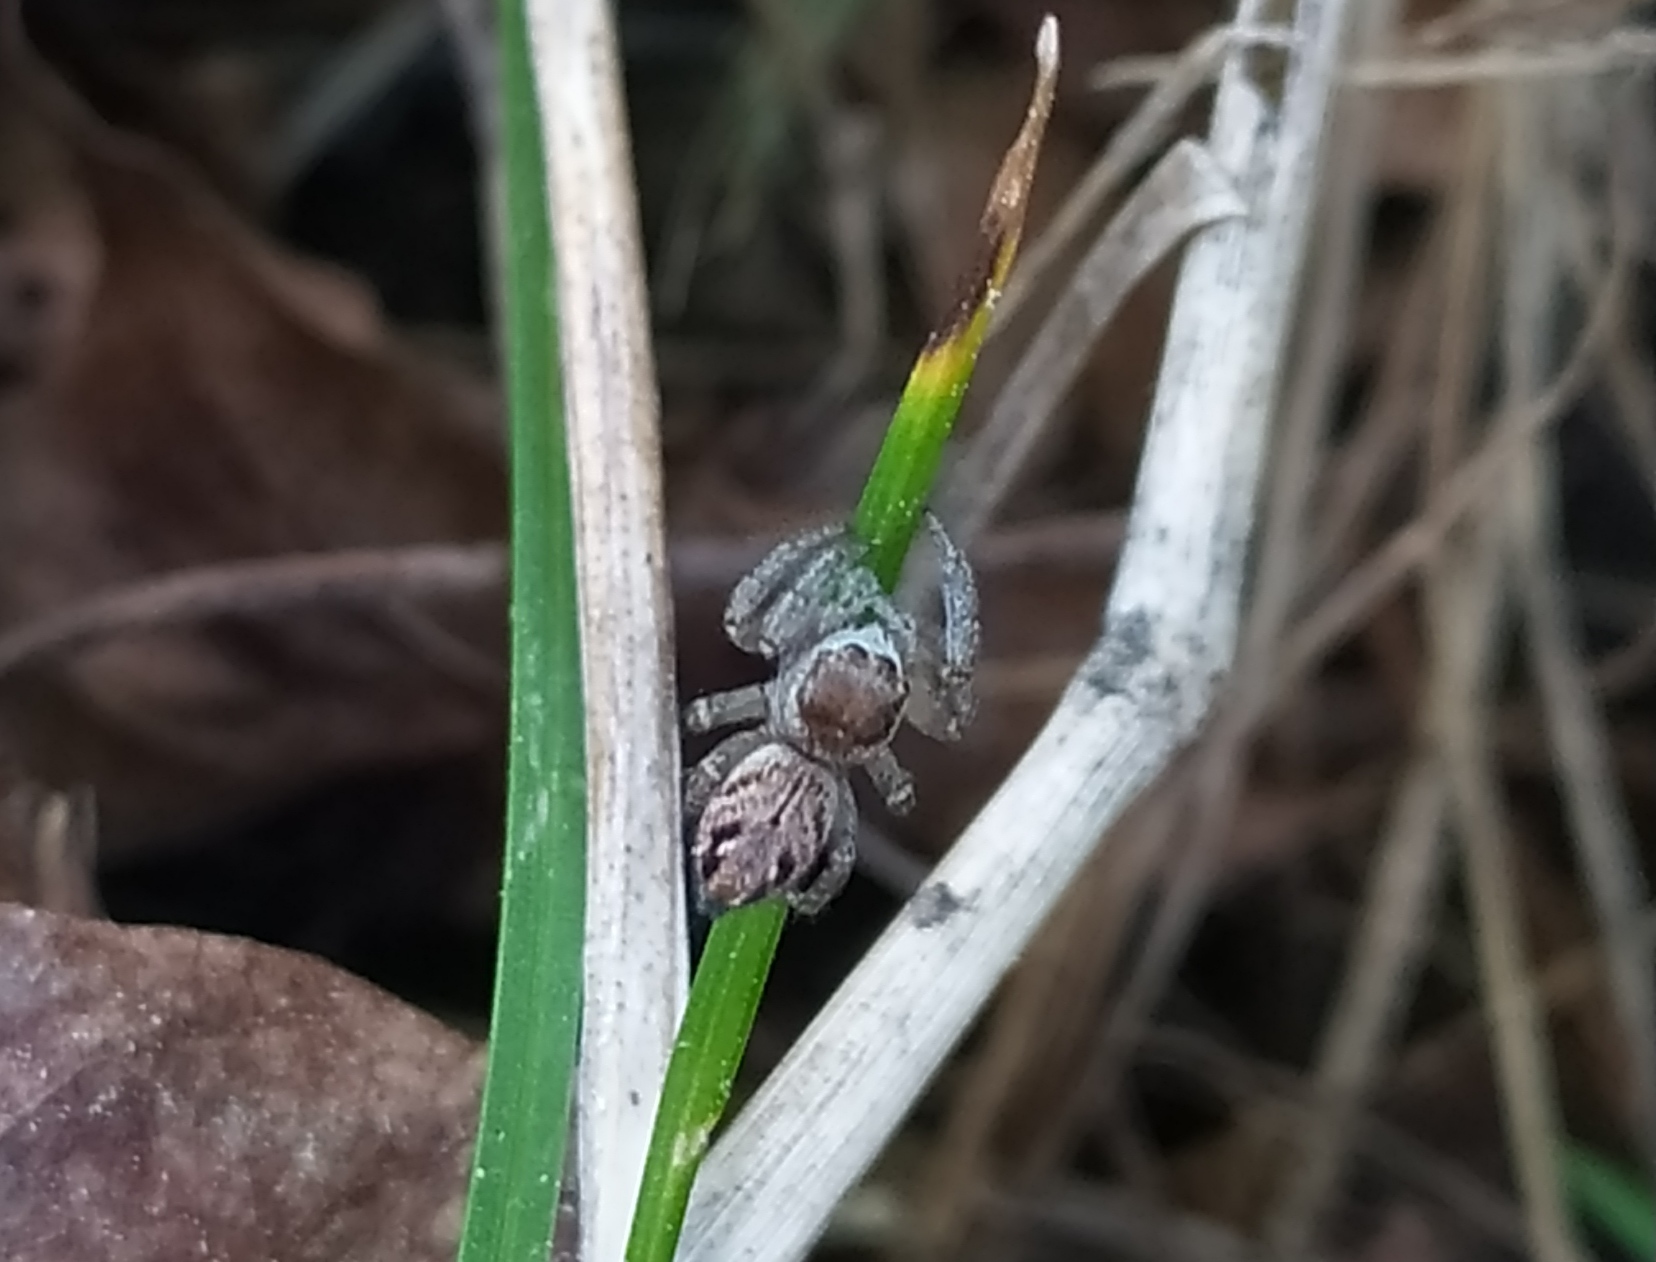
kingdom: Animalia
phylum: Arthropoda
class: Arachnida
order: Araneae
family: Salticidae
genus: Evarcha
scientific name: Evarcha arcuata
